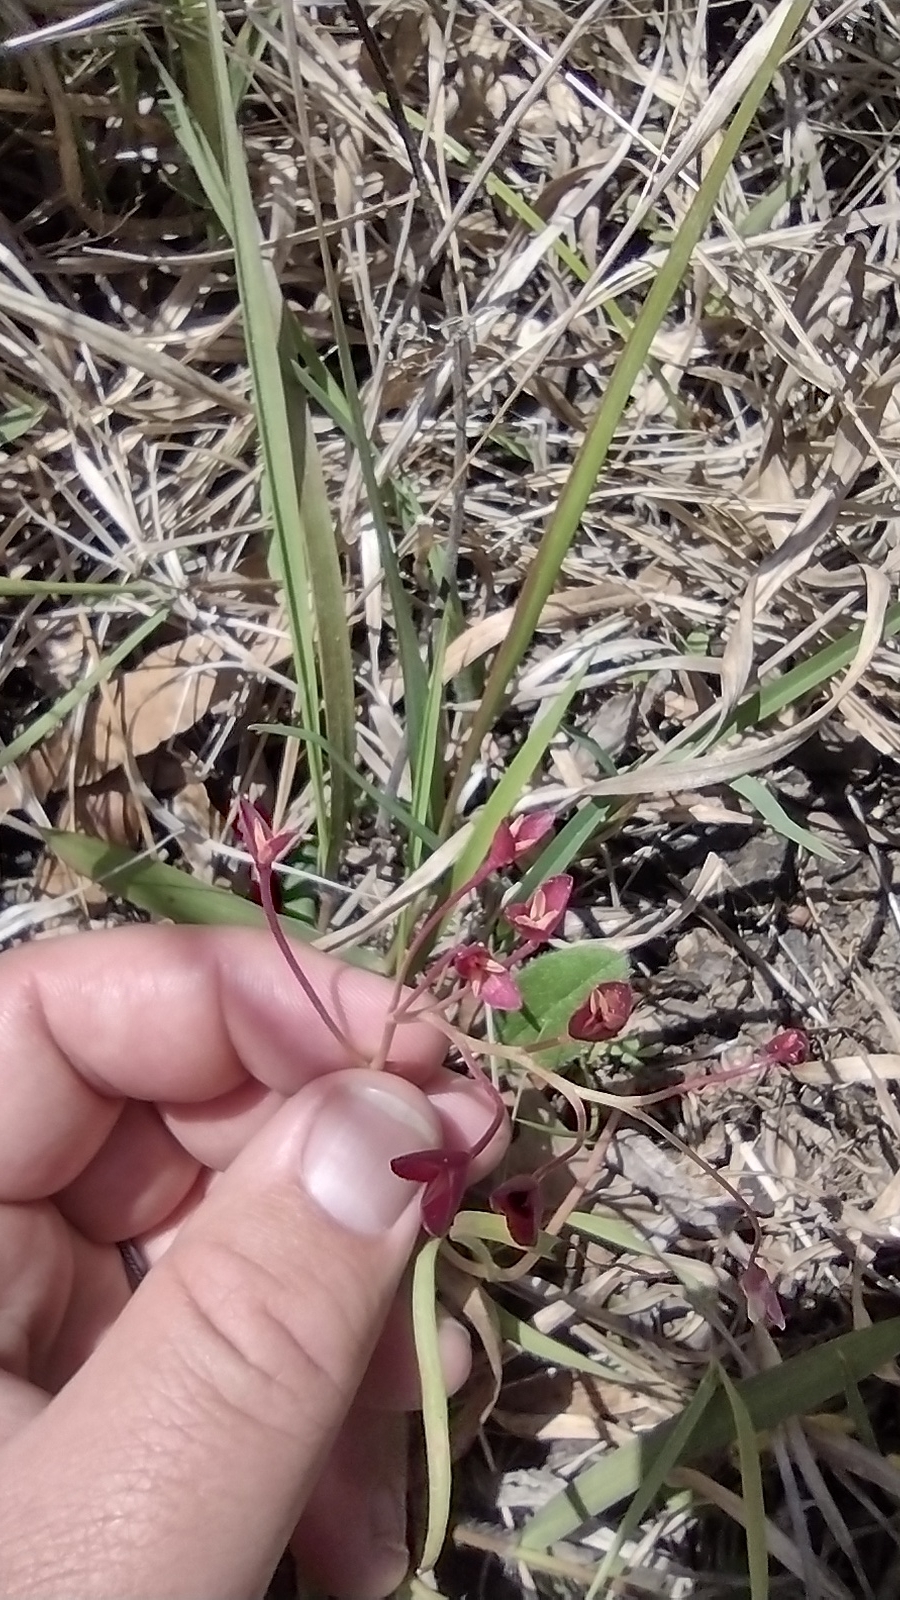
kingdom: Plantae
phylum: Tracheophyta
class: Magnoliopsida
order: Caryophyllales
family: Montiaceae
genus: Claytonia
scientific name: Claytonia virginica
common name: Virginia springbeauty
